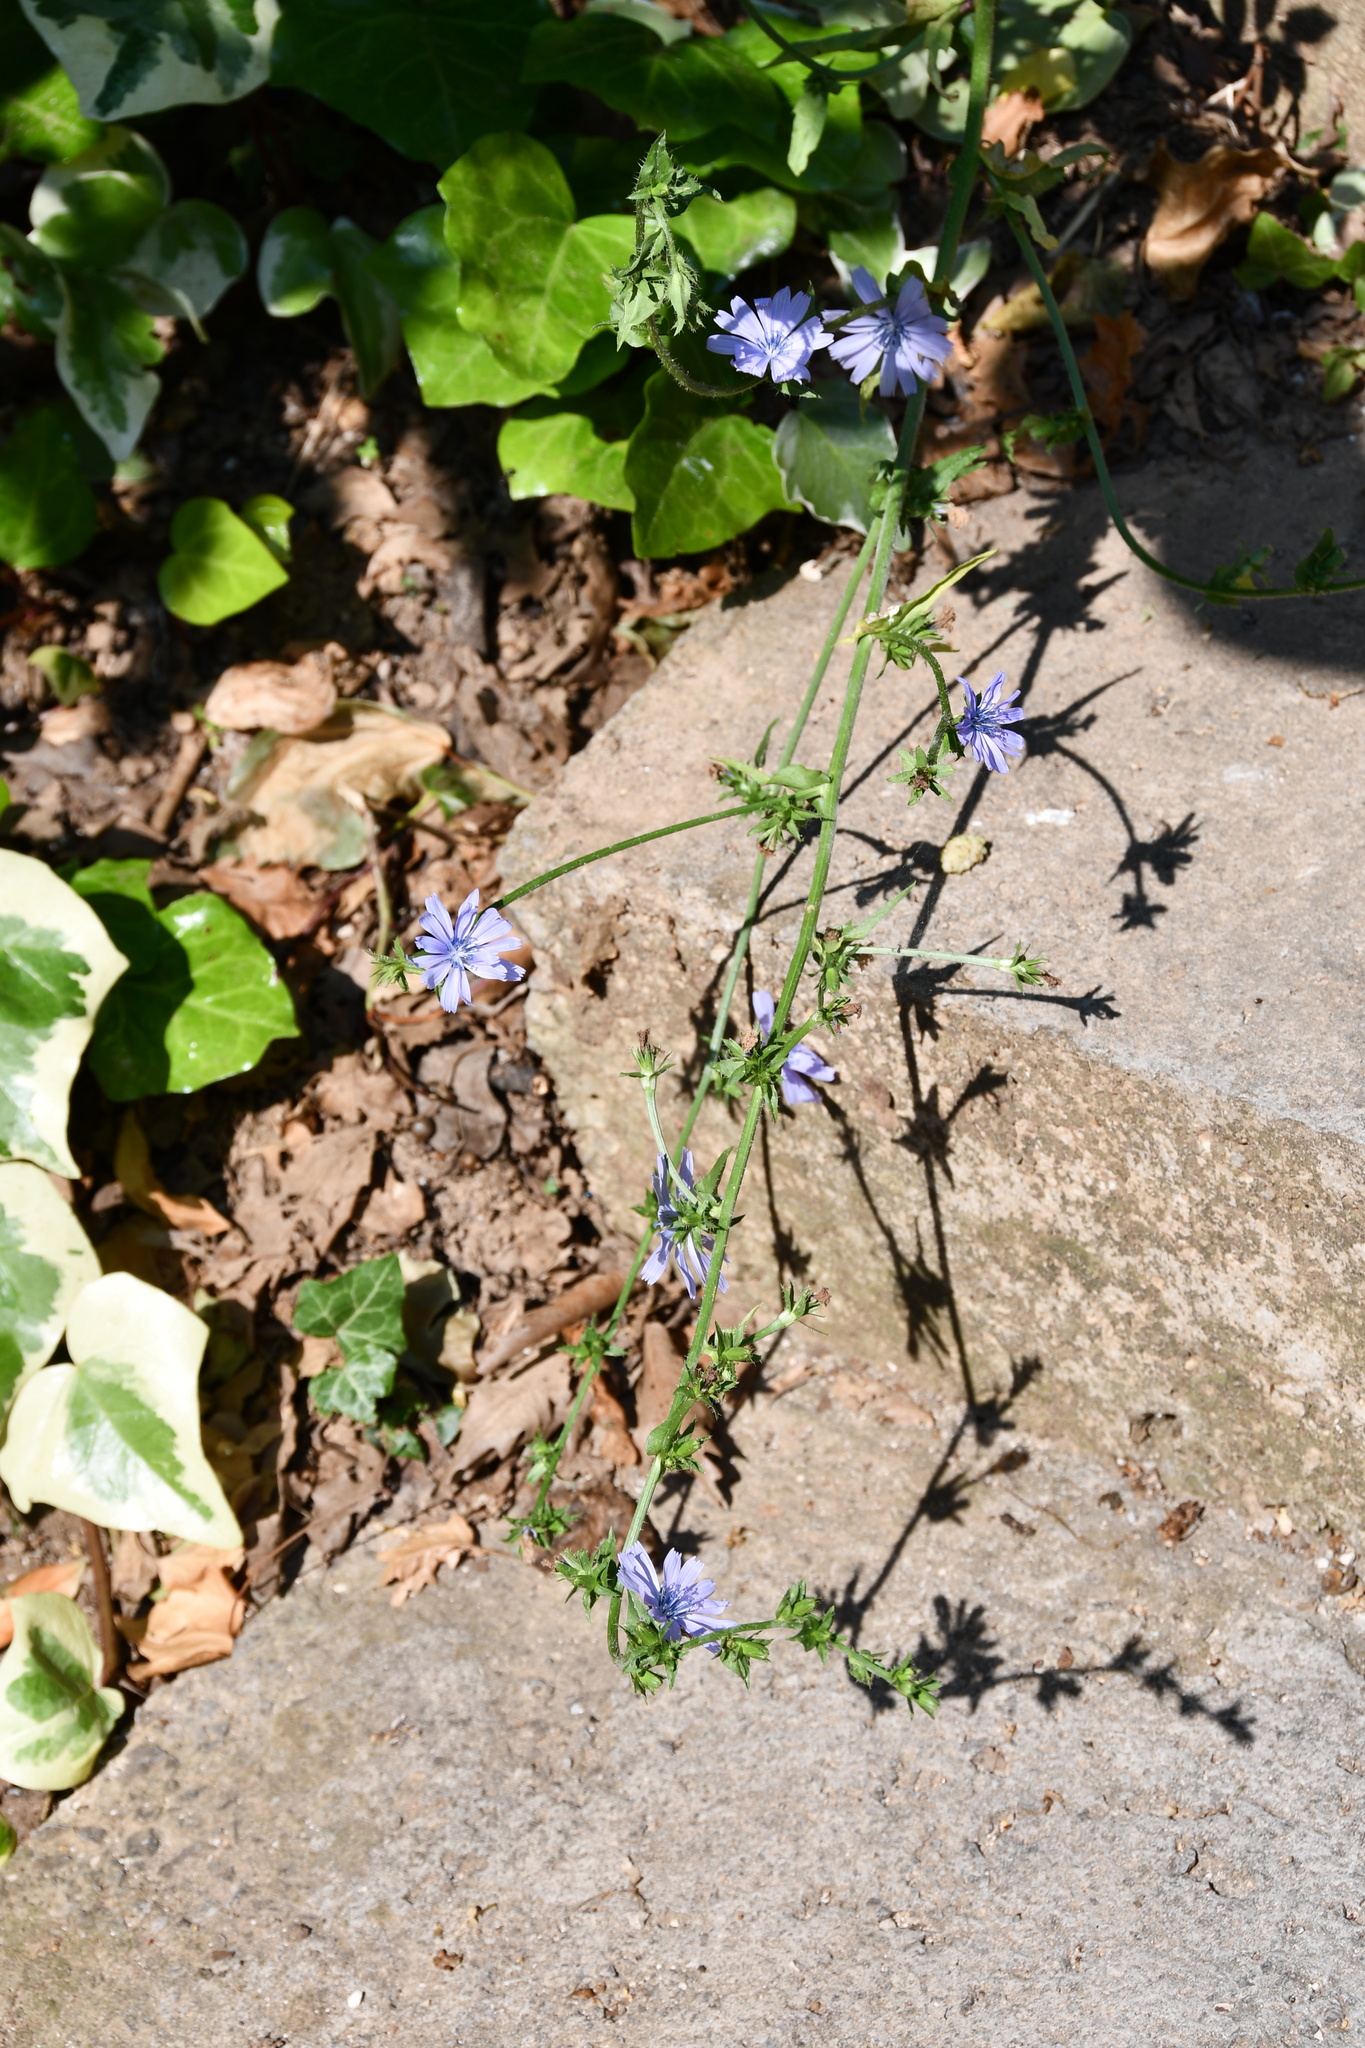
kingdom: Plantae
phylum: Tracheophyta
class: Magnoliopsida
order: Asterales
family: Asteraceae
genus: Cichorium
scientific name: Cichorium intybus
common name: Chicory
